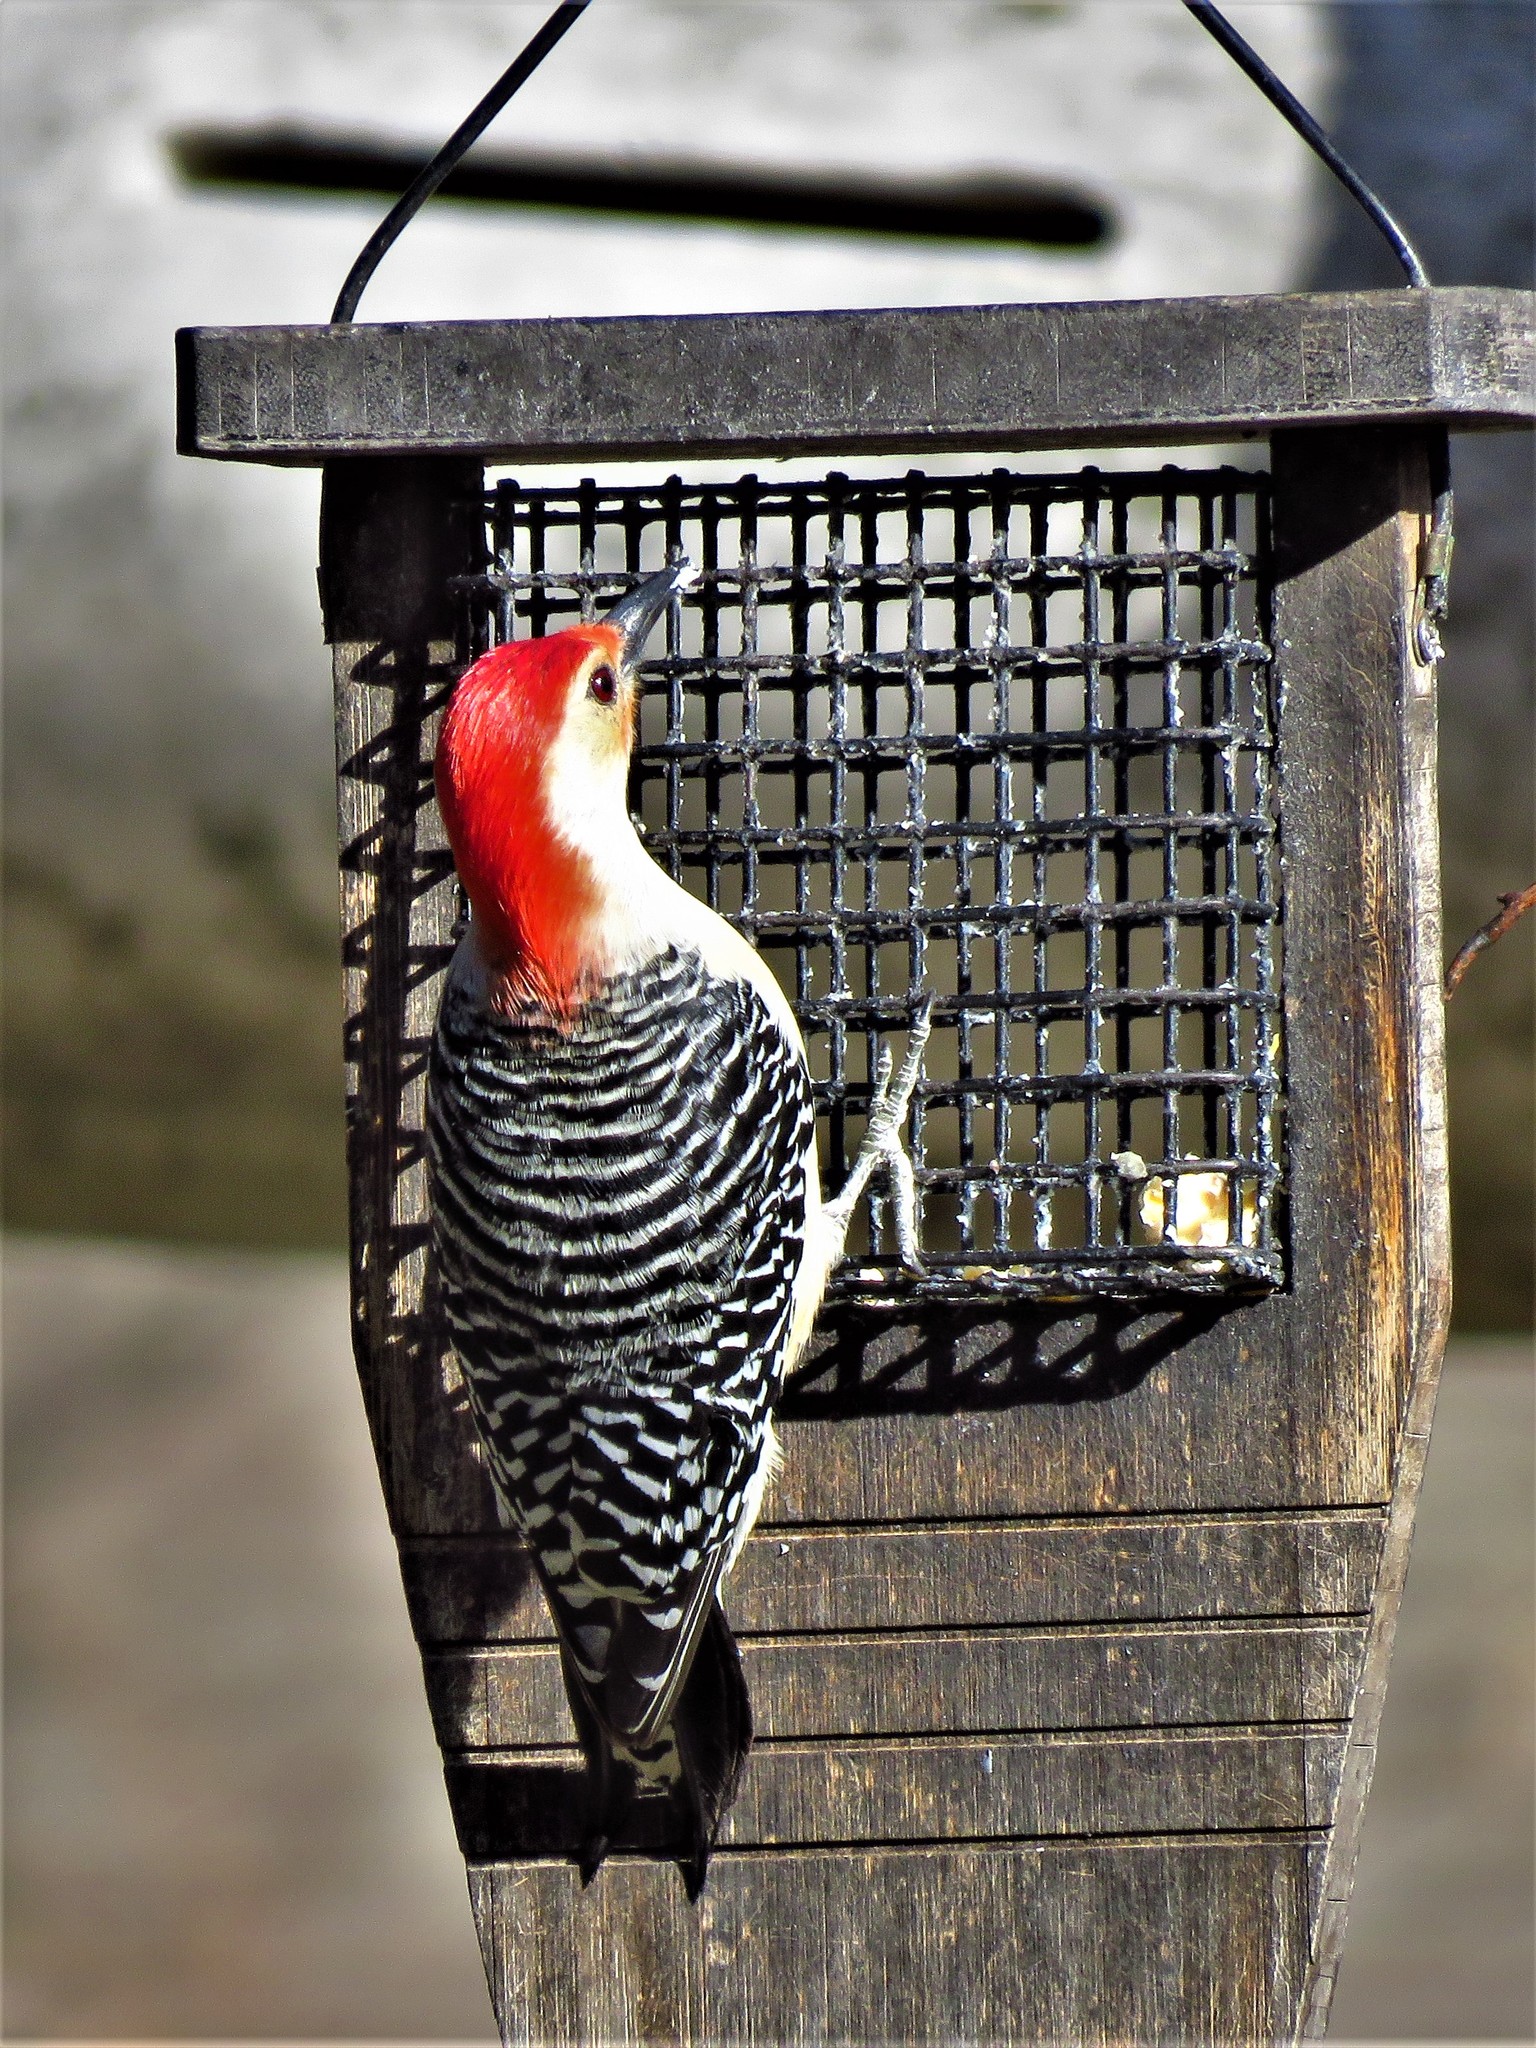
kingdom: Animalia
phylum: Chordata
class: Aves
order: Piciformes
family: Picidae
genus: Melanerpes
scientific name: Melanerpes carolinus
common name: Red-bellied woodpecker
